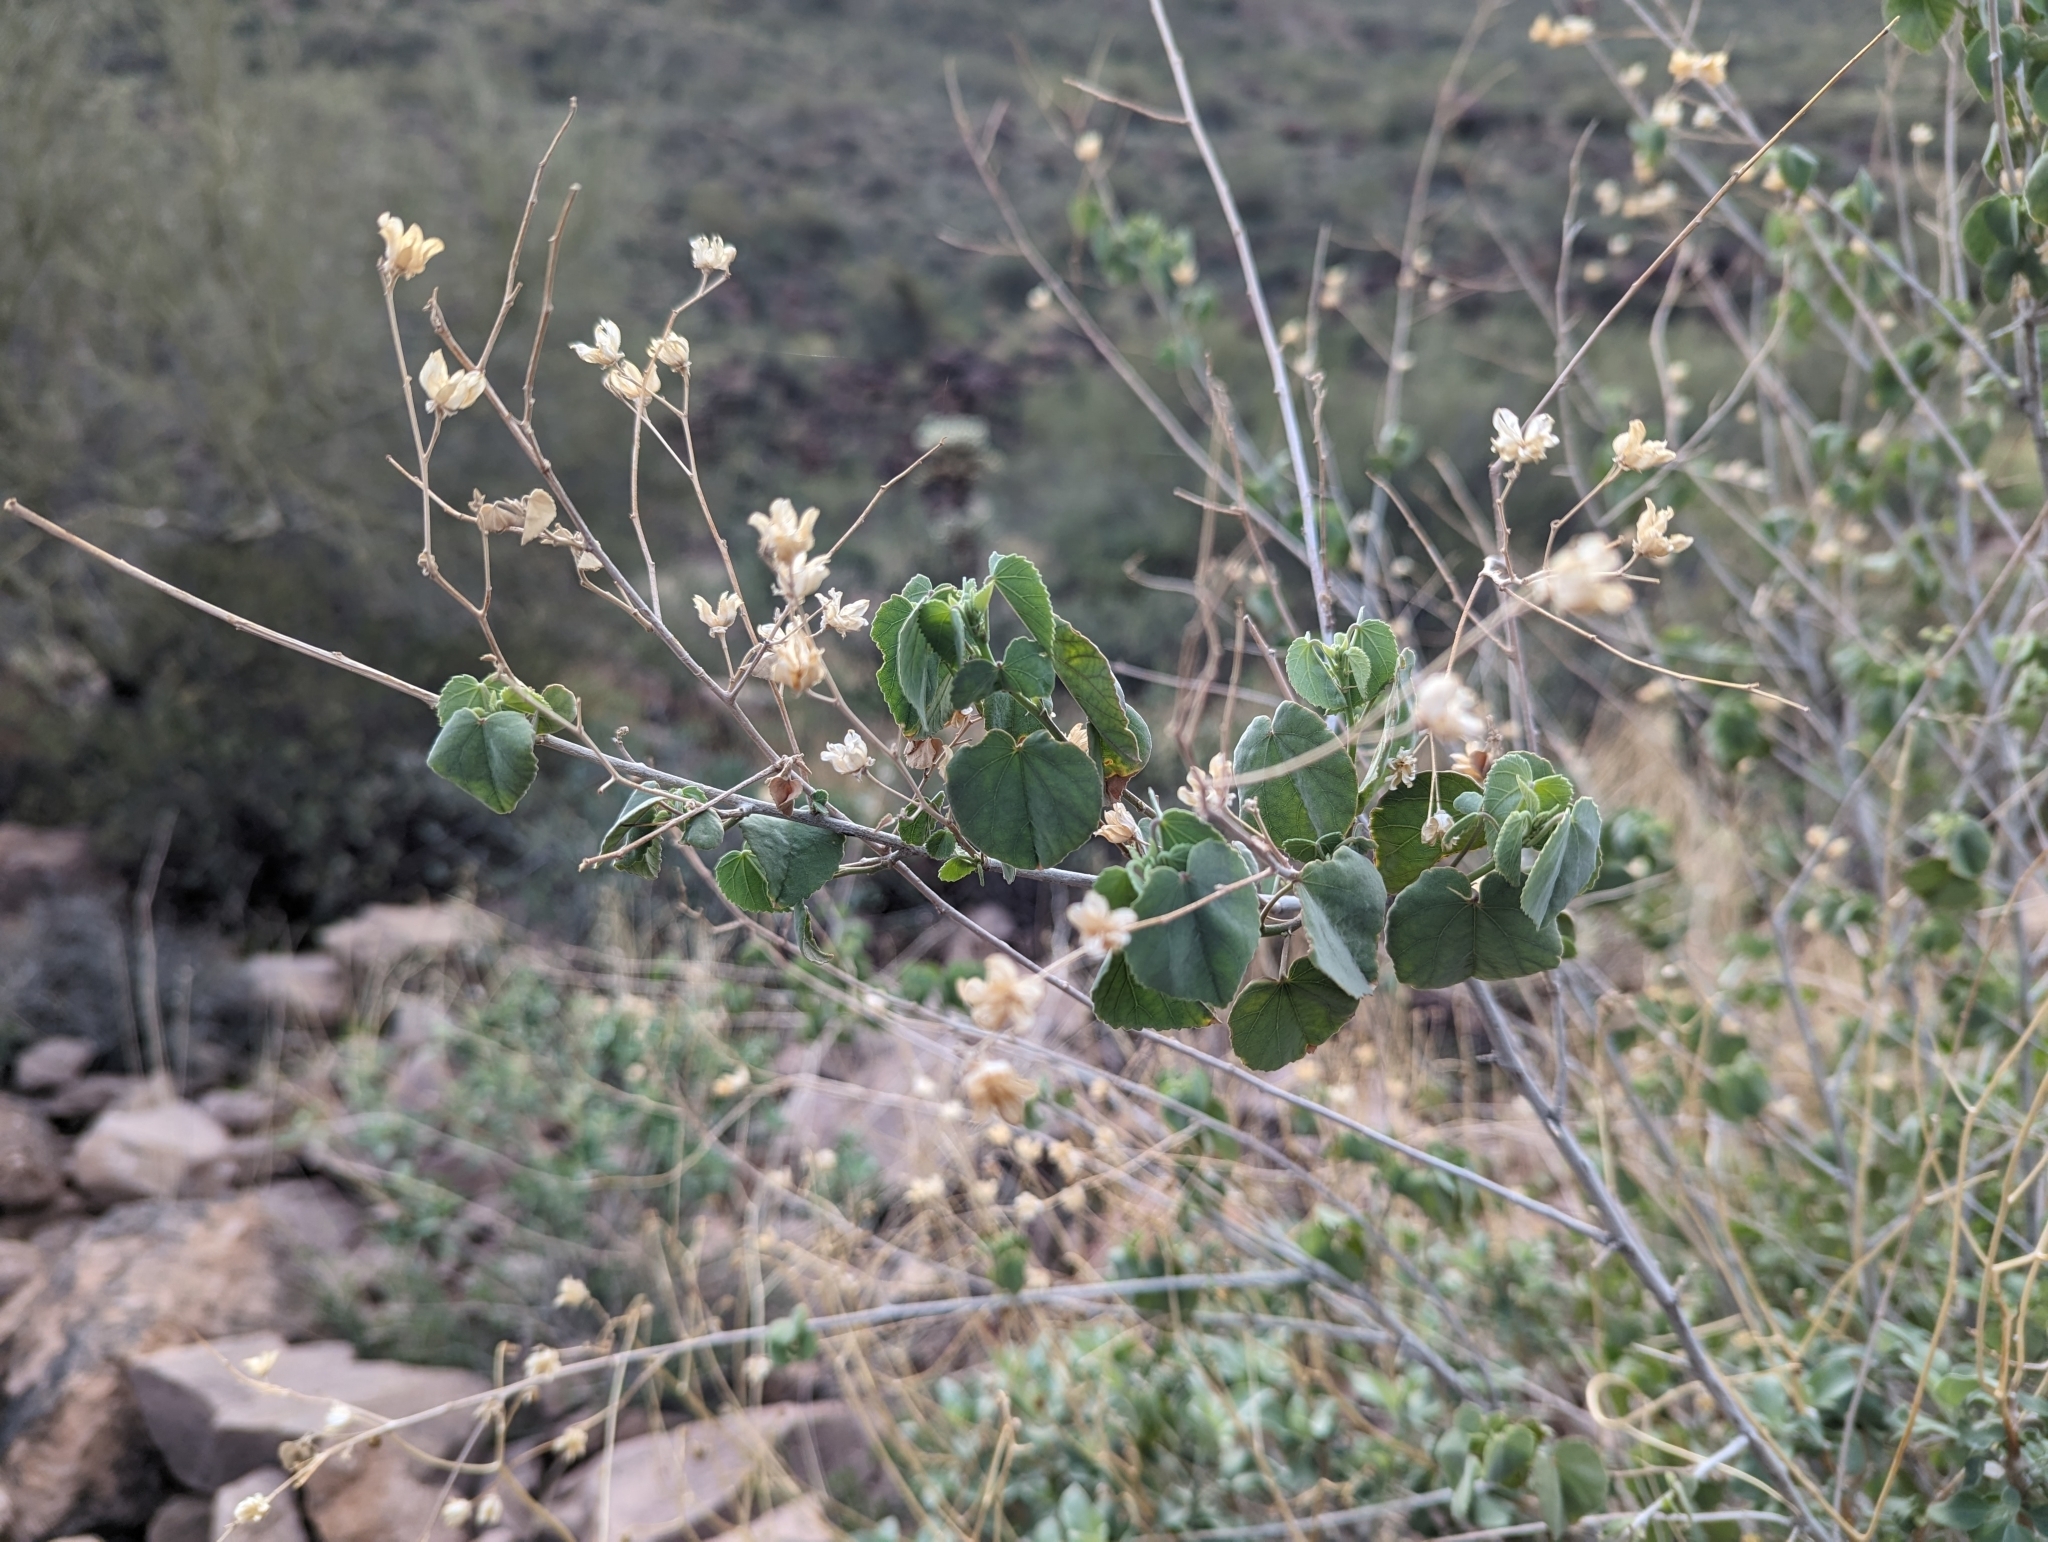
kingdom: Plantae
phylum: Tracheophyta
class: Magnoliopsida
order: Malvales
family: Malvaceae
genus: Abutilon
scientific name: Abutilon incanum
